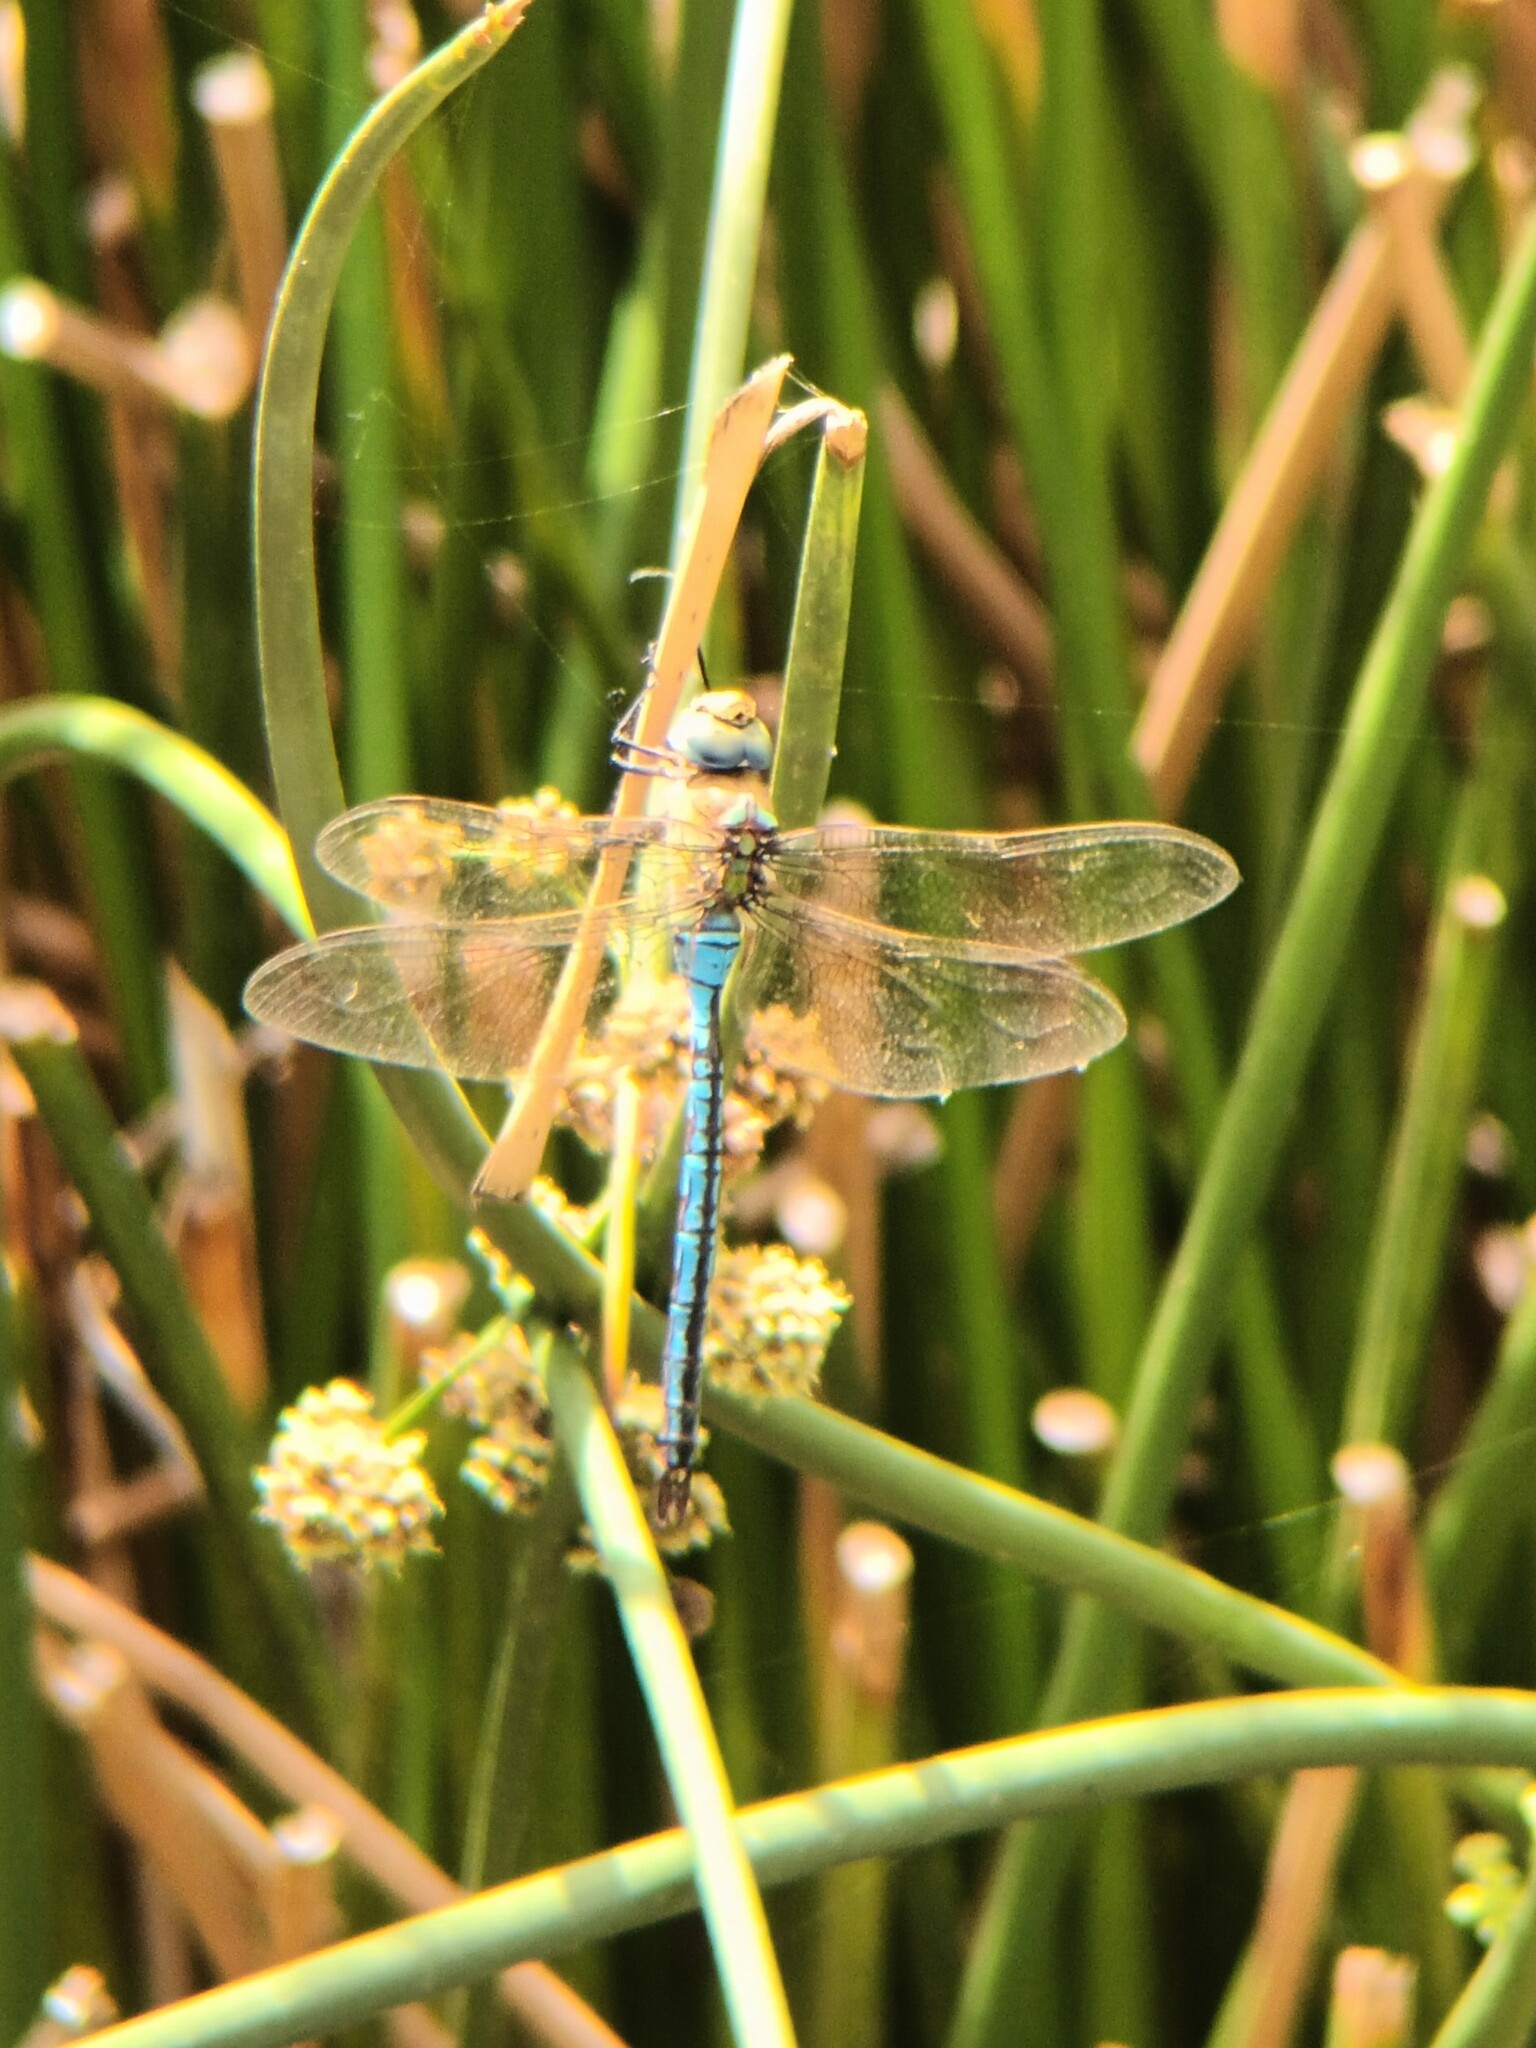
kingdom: Animalia
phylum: Arthropoda
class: Insecta
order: Odonata
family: Aeshnidae
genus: Anax
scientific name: Anax imperator
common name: Emperor dragonfly
